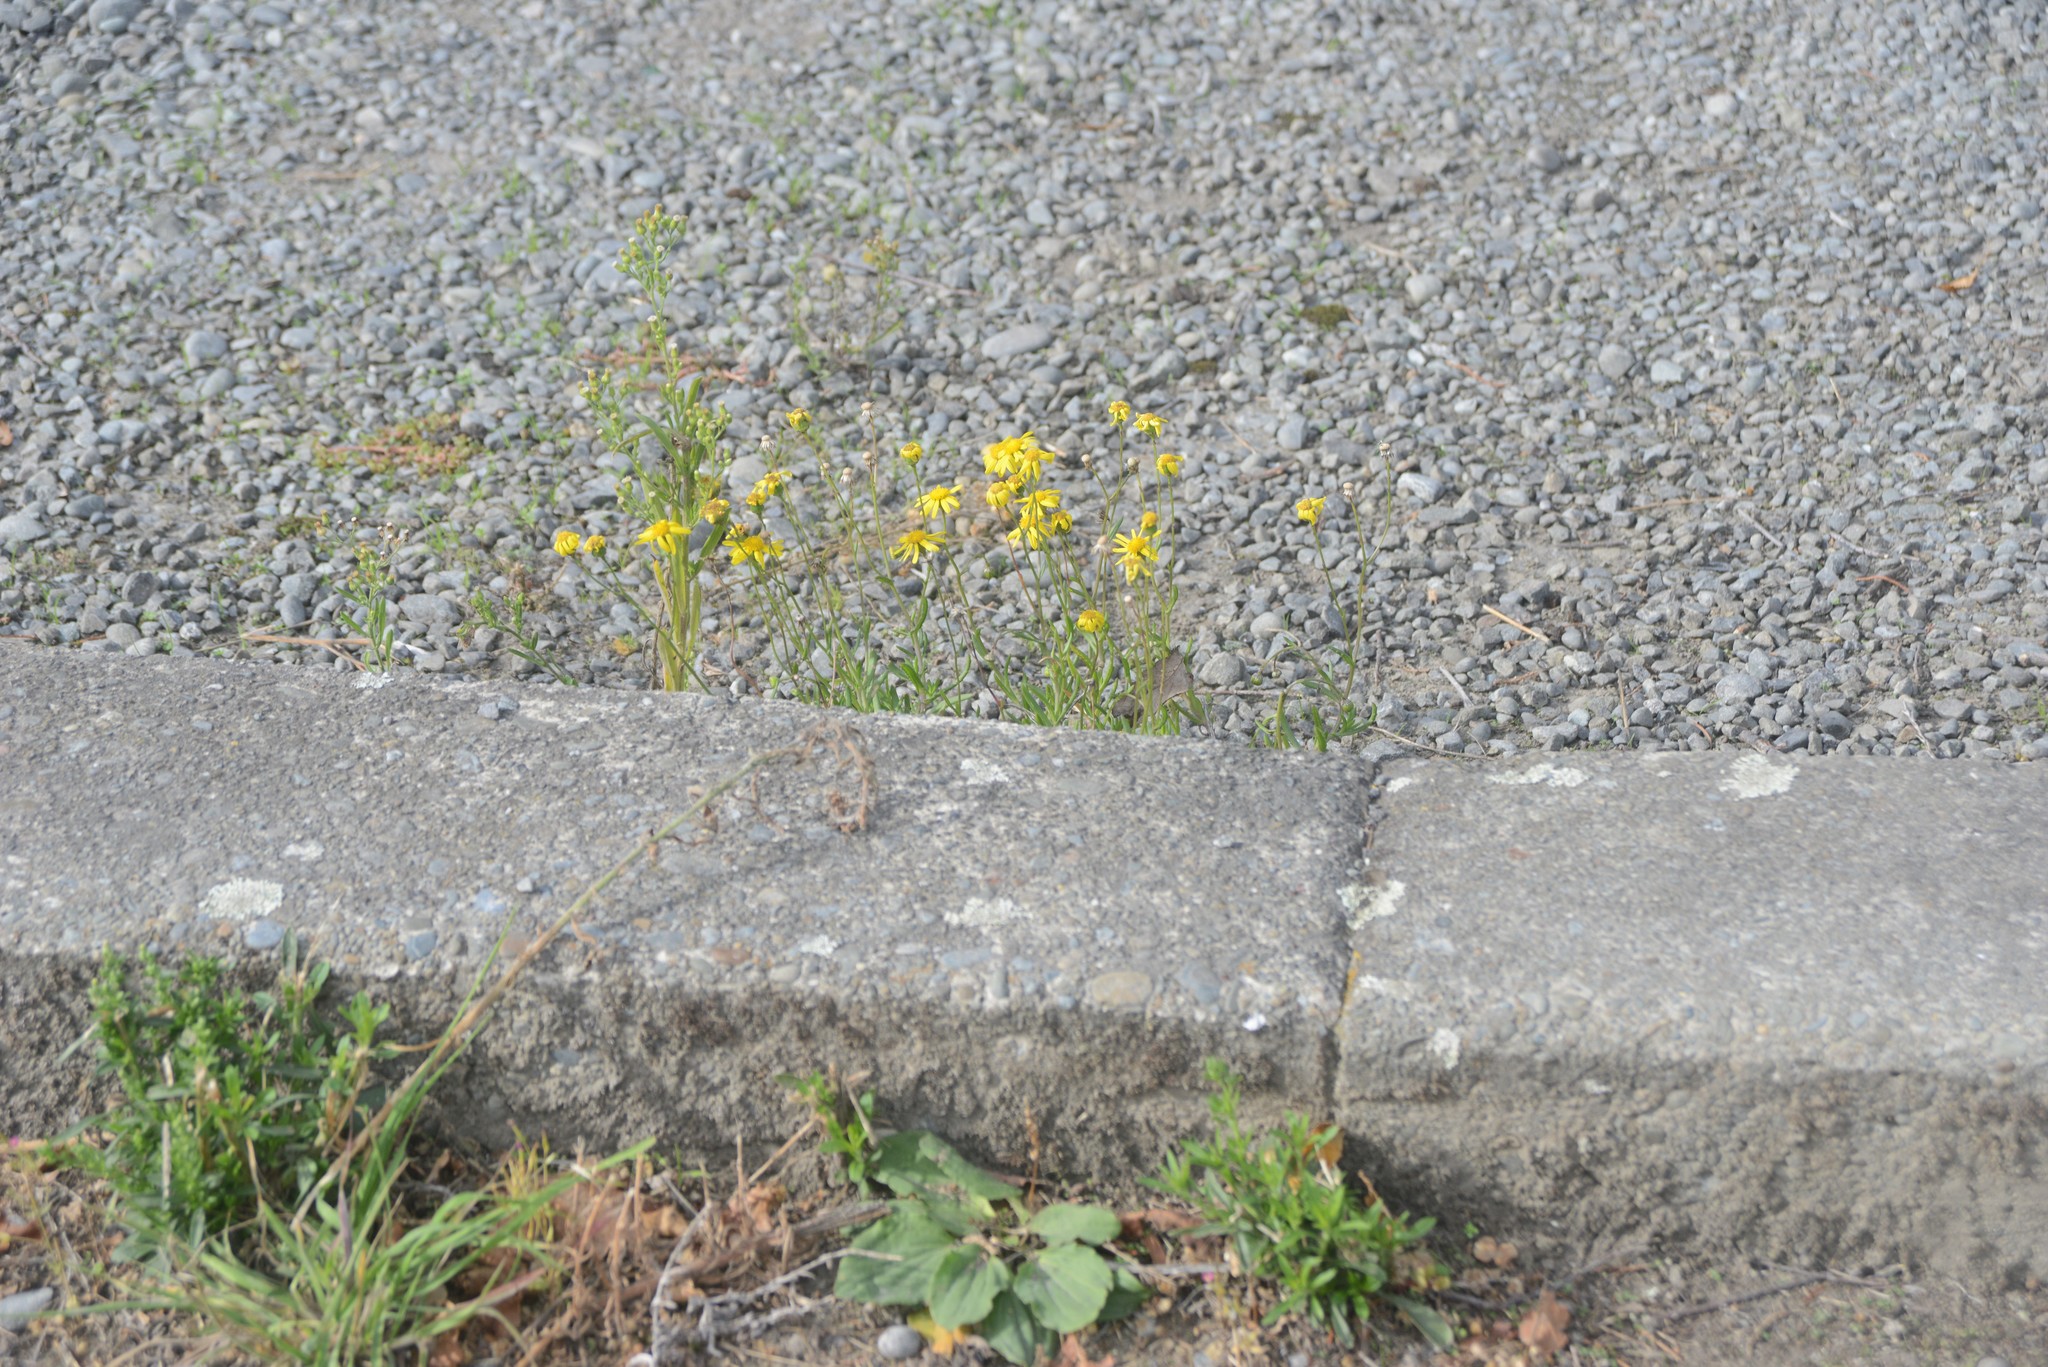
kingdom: Plantae
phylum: Tracheophyta
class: Magnoliopsida
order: Asterales
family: Asteraceae
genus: Senecio
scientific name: Senecio skirrhodon
